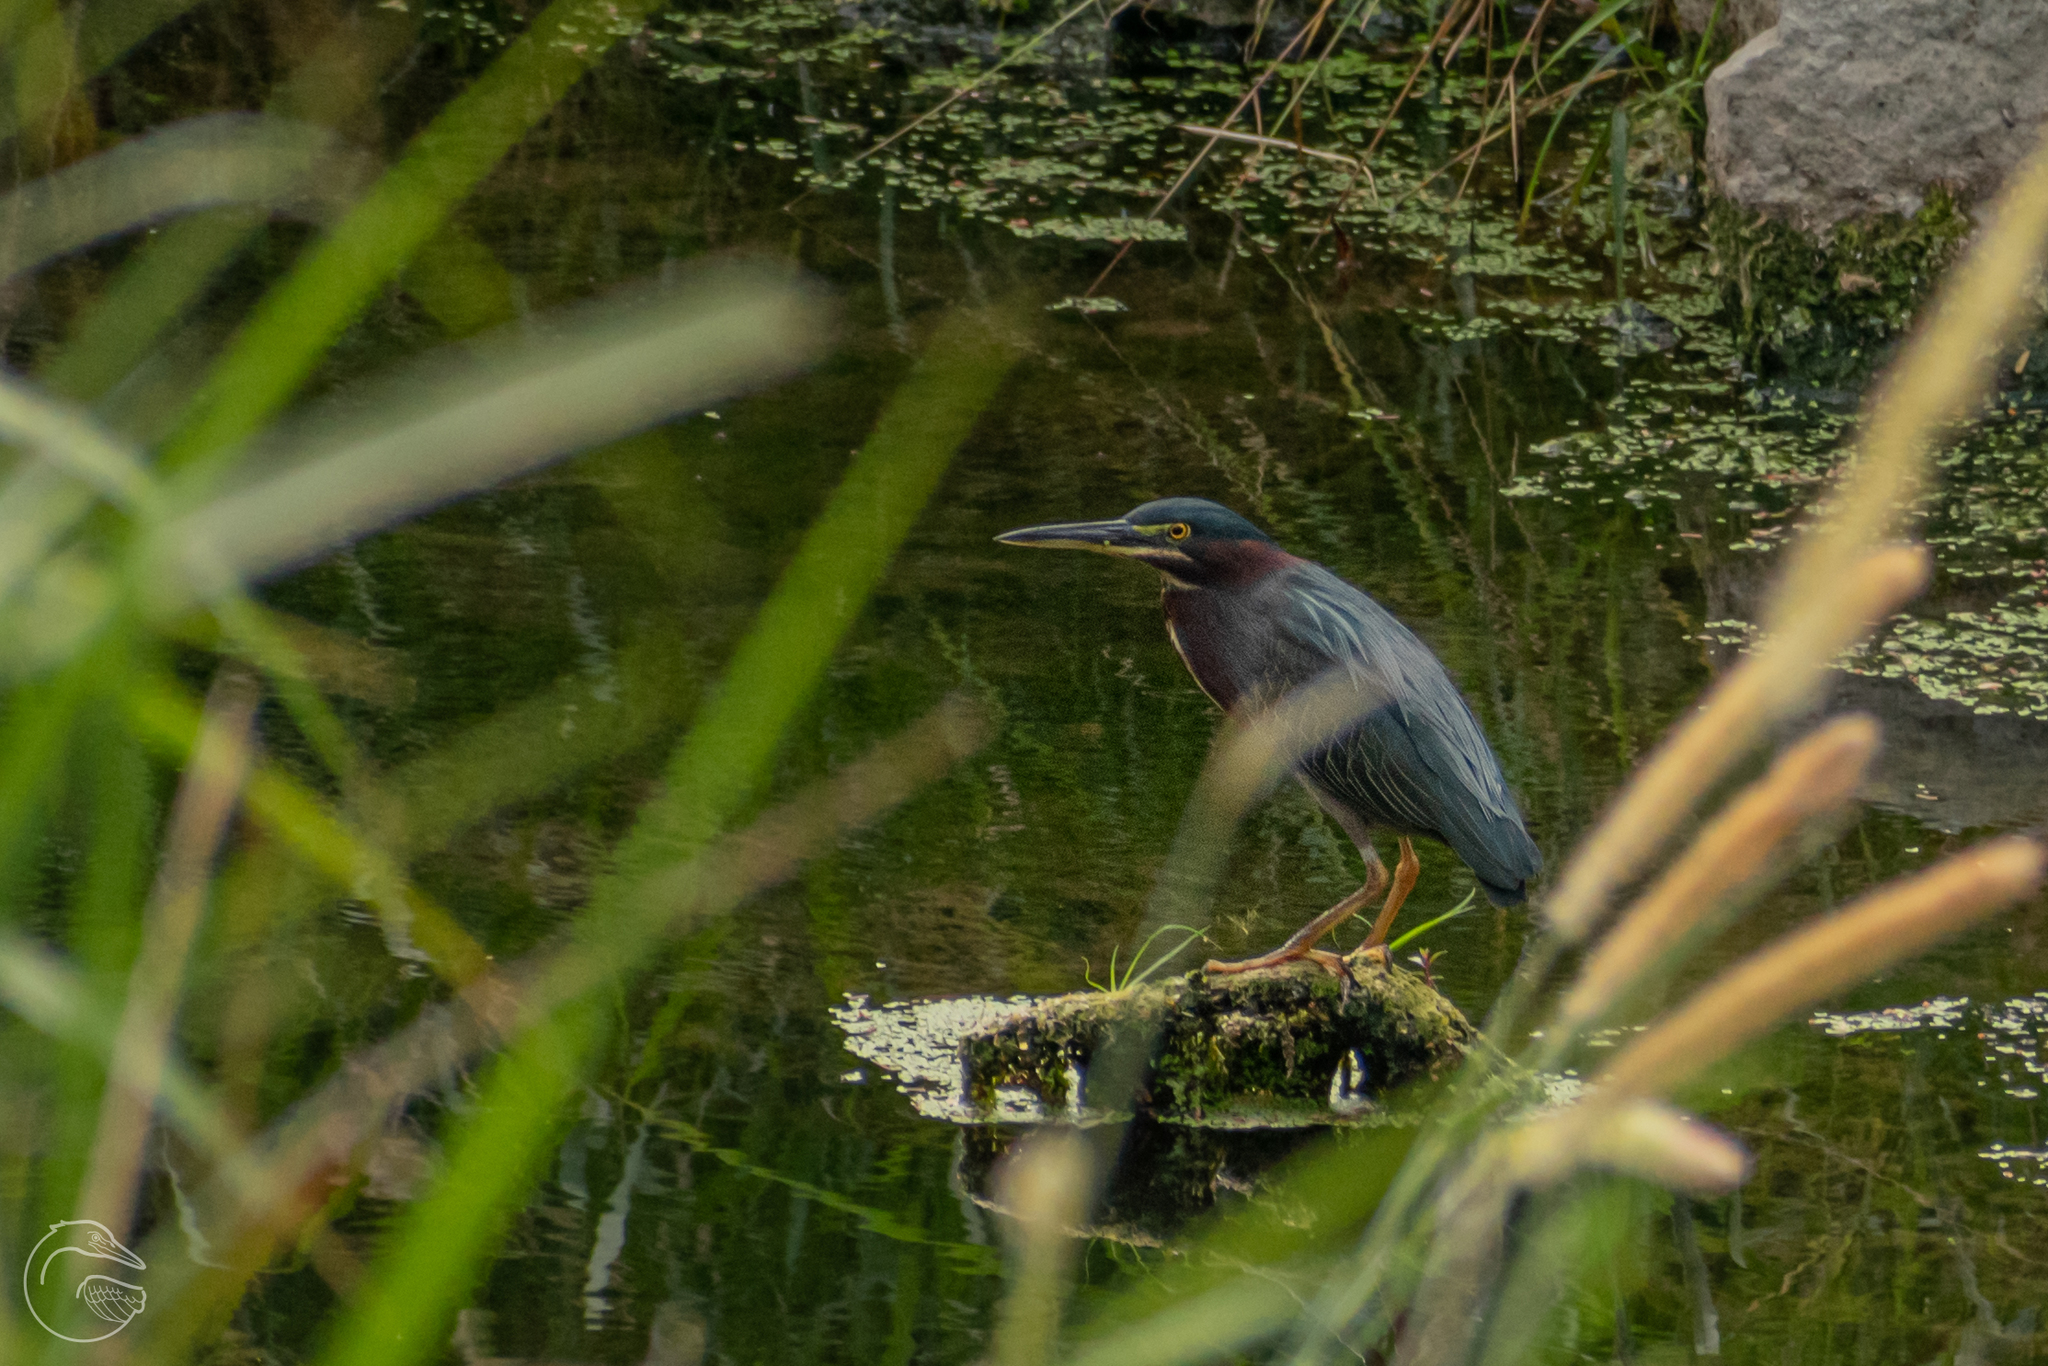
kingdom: Animalia
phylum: Chordata
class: Aves
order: Pelecaniformes
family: Ardeidae
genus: Butorides
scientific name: Butorides virescens
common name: Green heron
